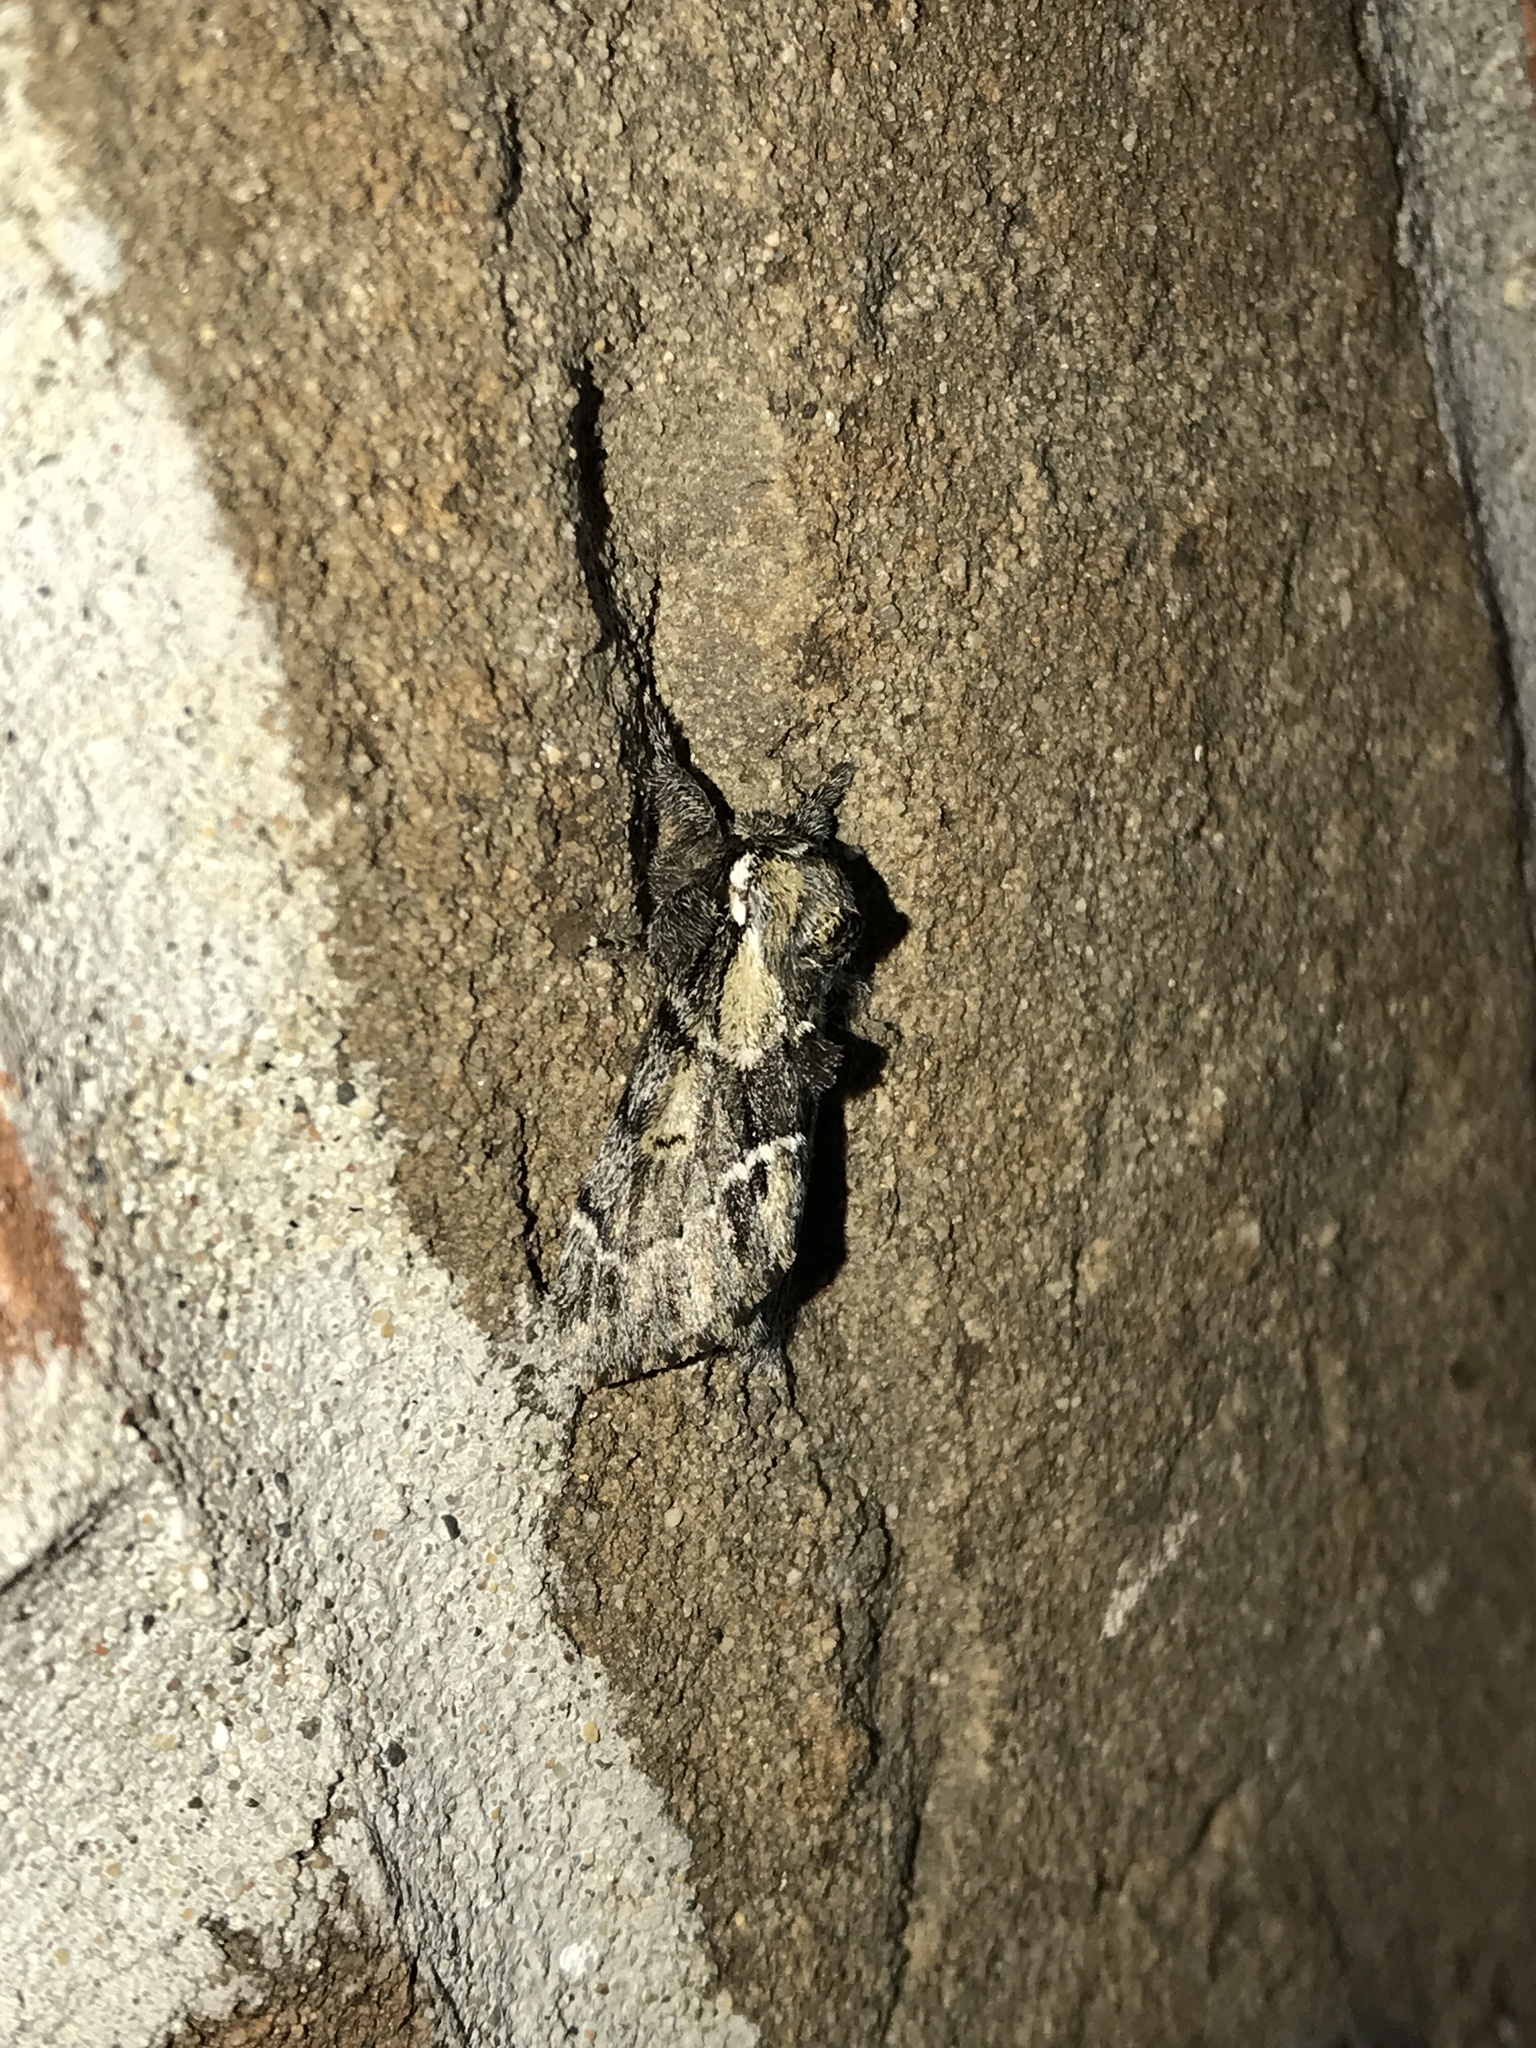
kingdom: Animalia
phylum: Arthropoda
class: Insecta
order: Lepidoptera
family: Notodontidae
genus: Paraeschra
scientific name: Paraeschra georgica
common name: Georgian prominent
